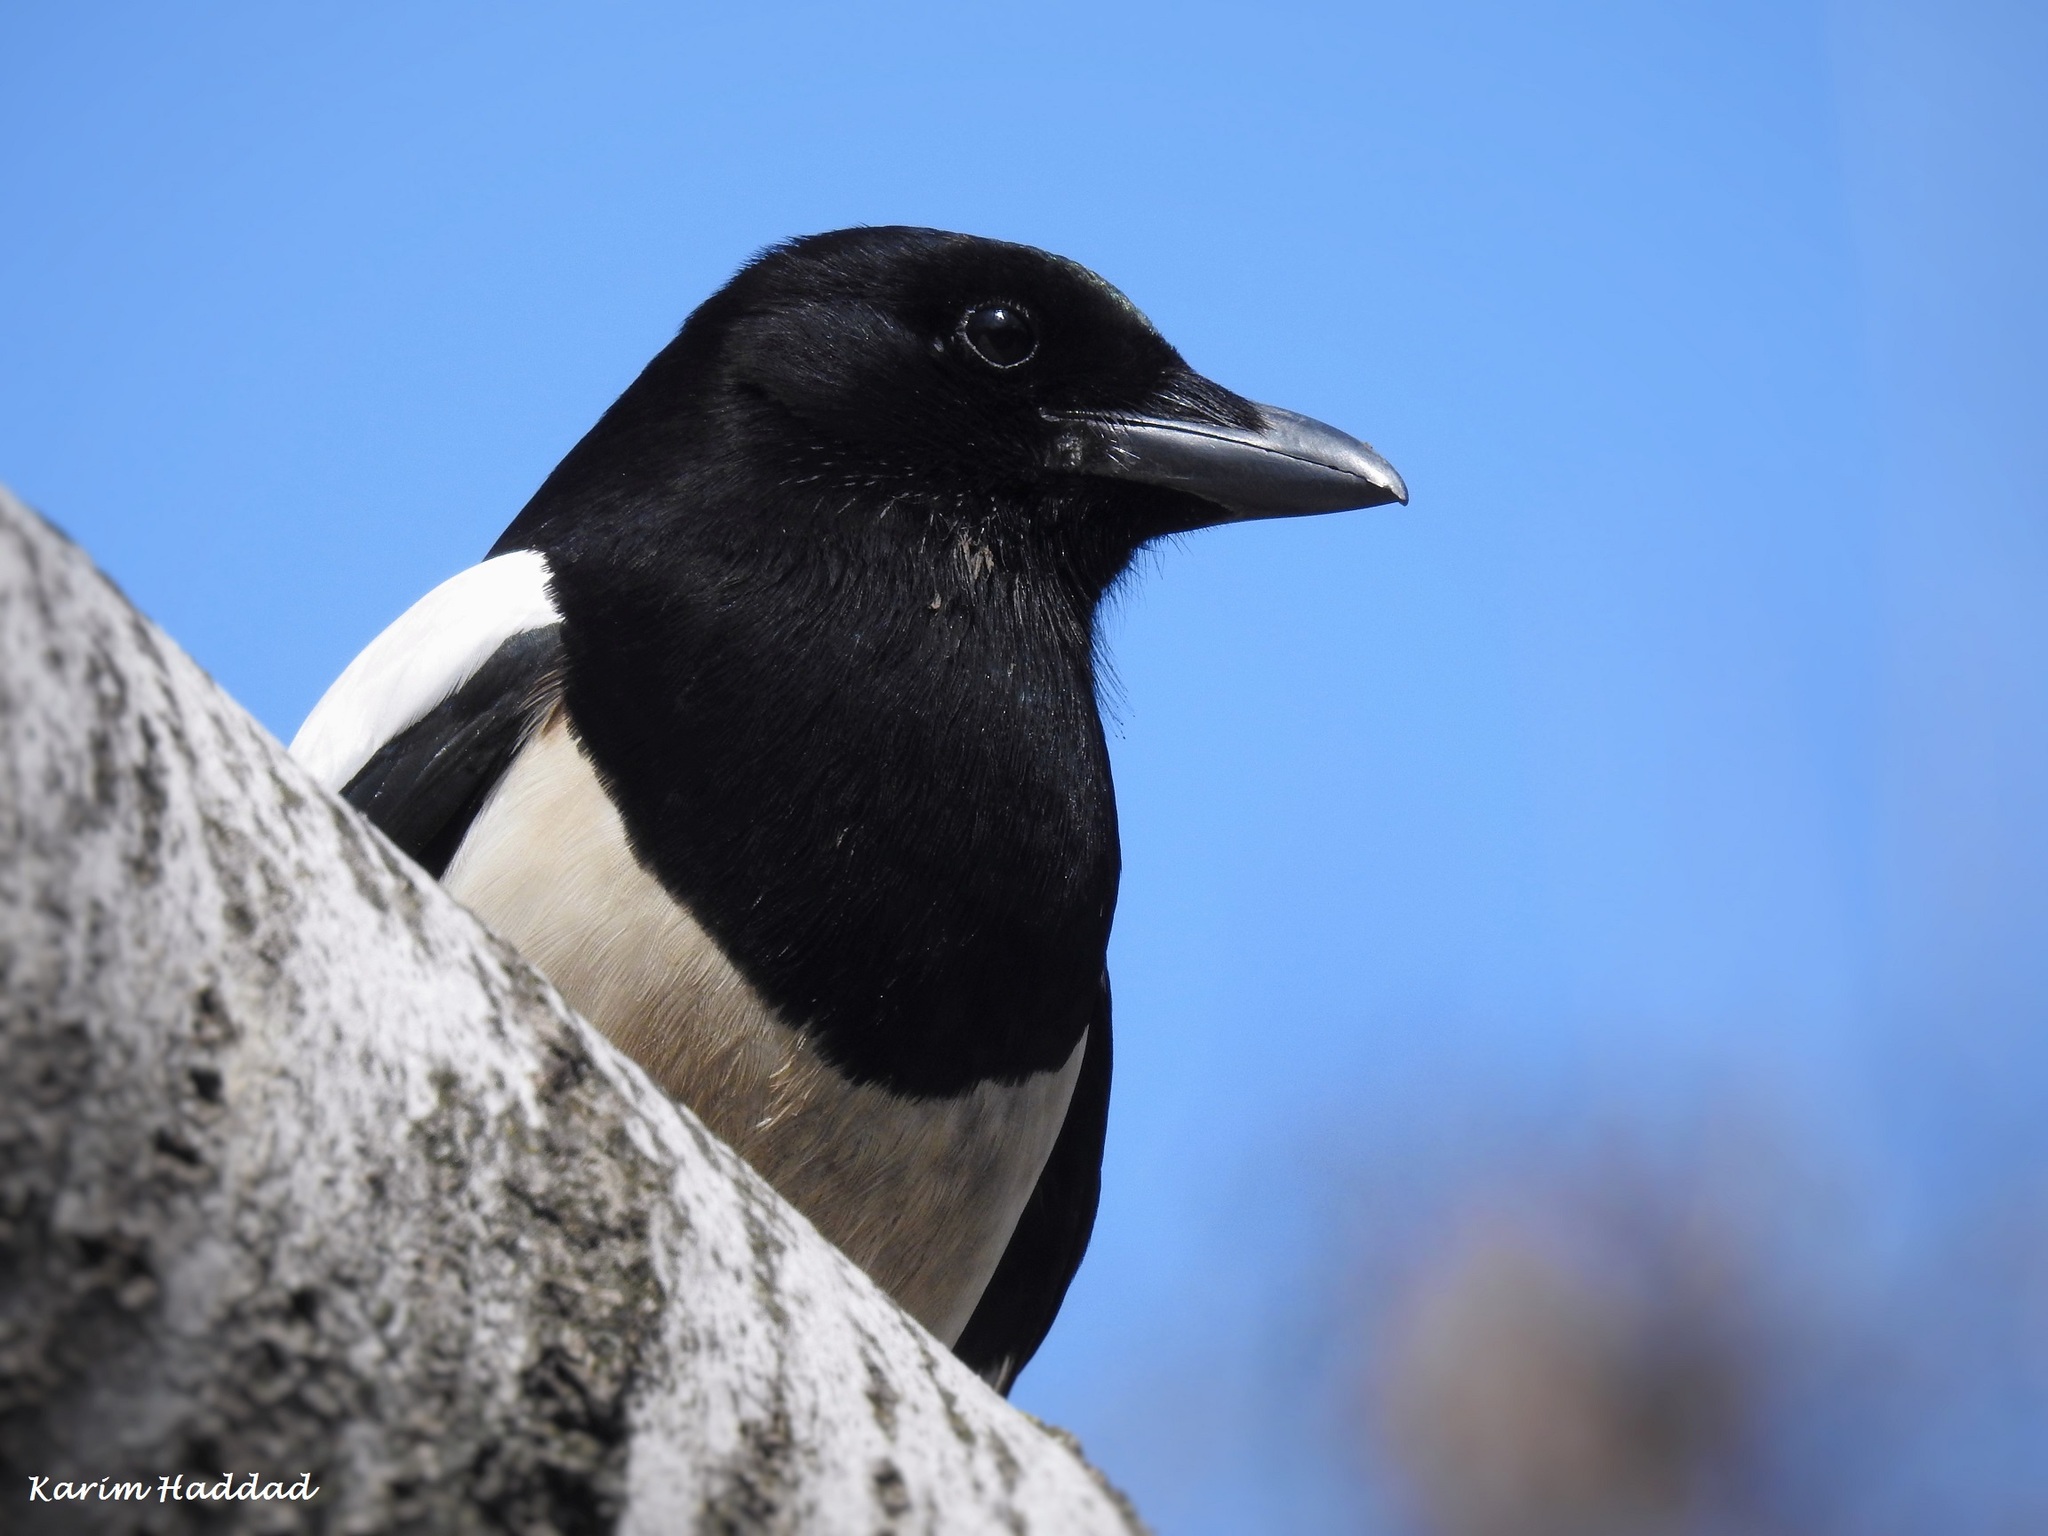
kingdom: Animalia
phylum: Chordata
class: Aves
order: Passeriformes
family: Corvidae
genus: Pica
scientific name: Pica pica
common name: Eurasian magpie
